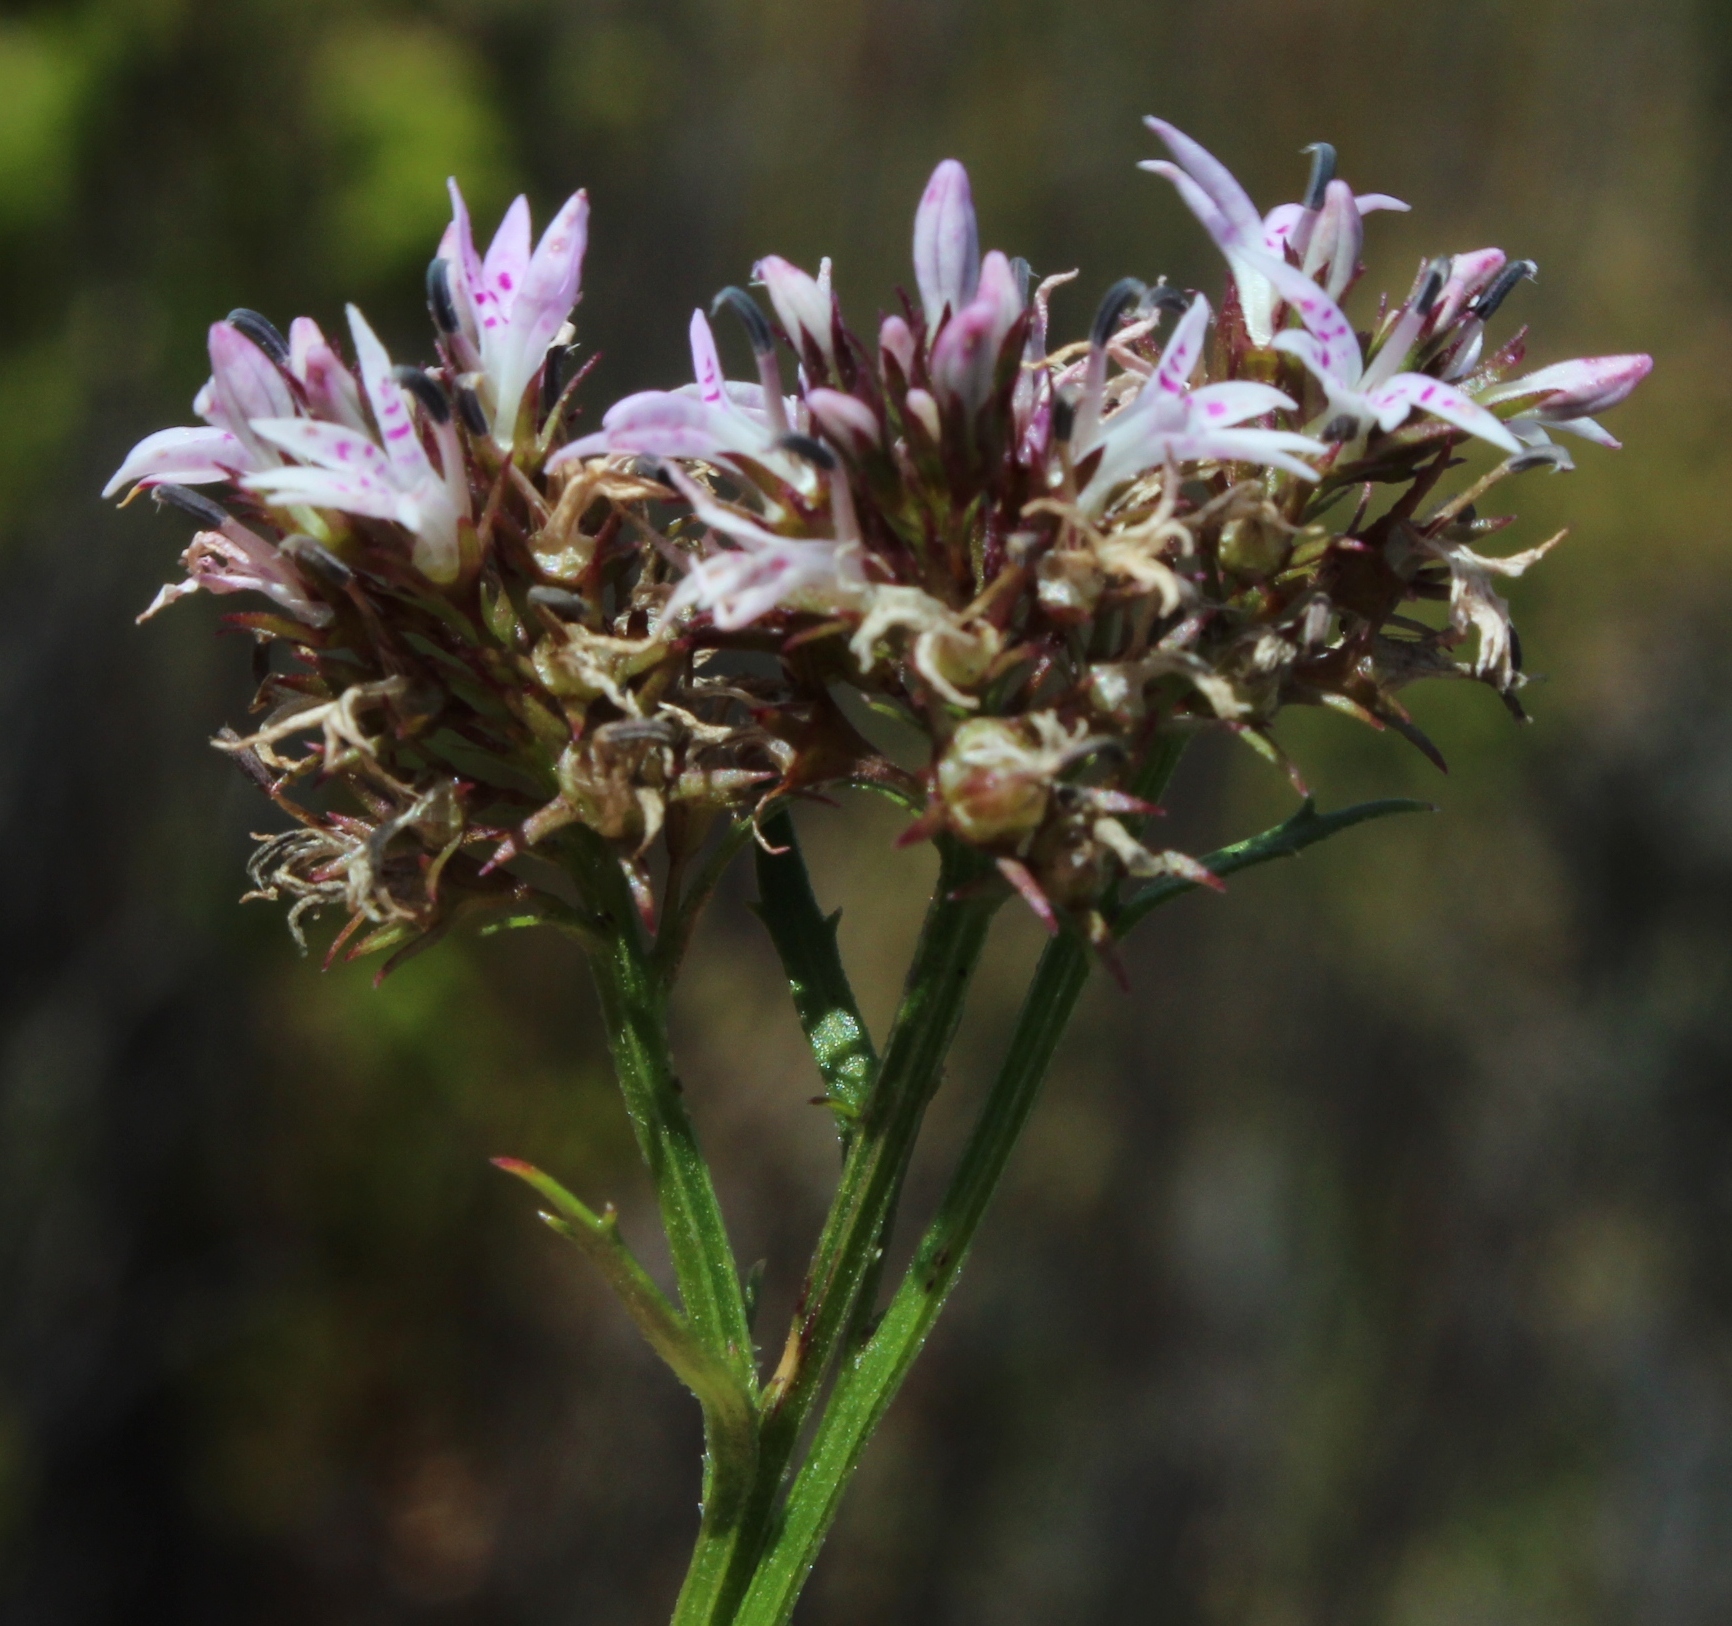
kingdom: Plantae
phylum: Tracheophyta
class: Magnoliopsida
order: Asterales
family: Campanulaceae
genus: Lobelia
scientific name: Lobelia jasionoides
